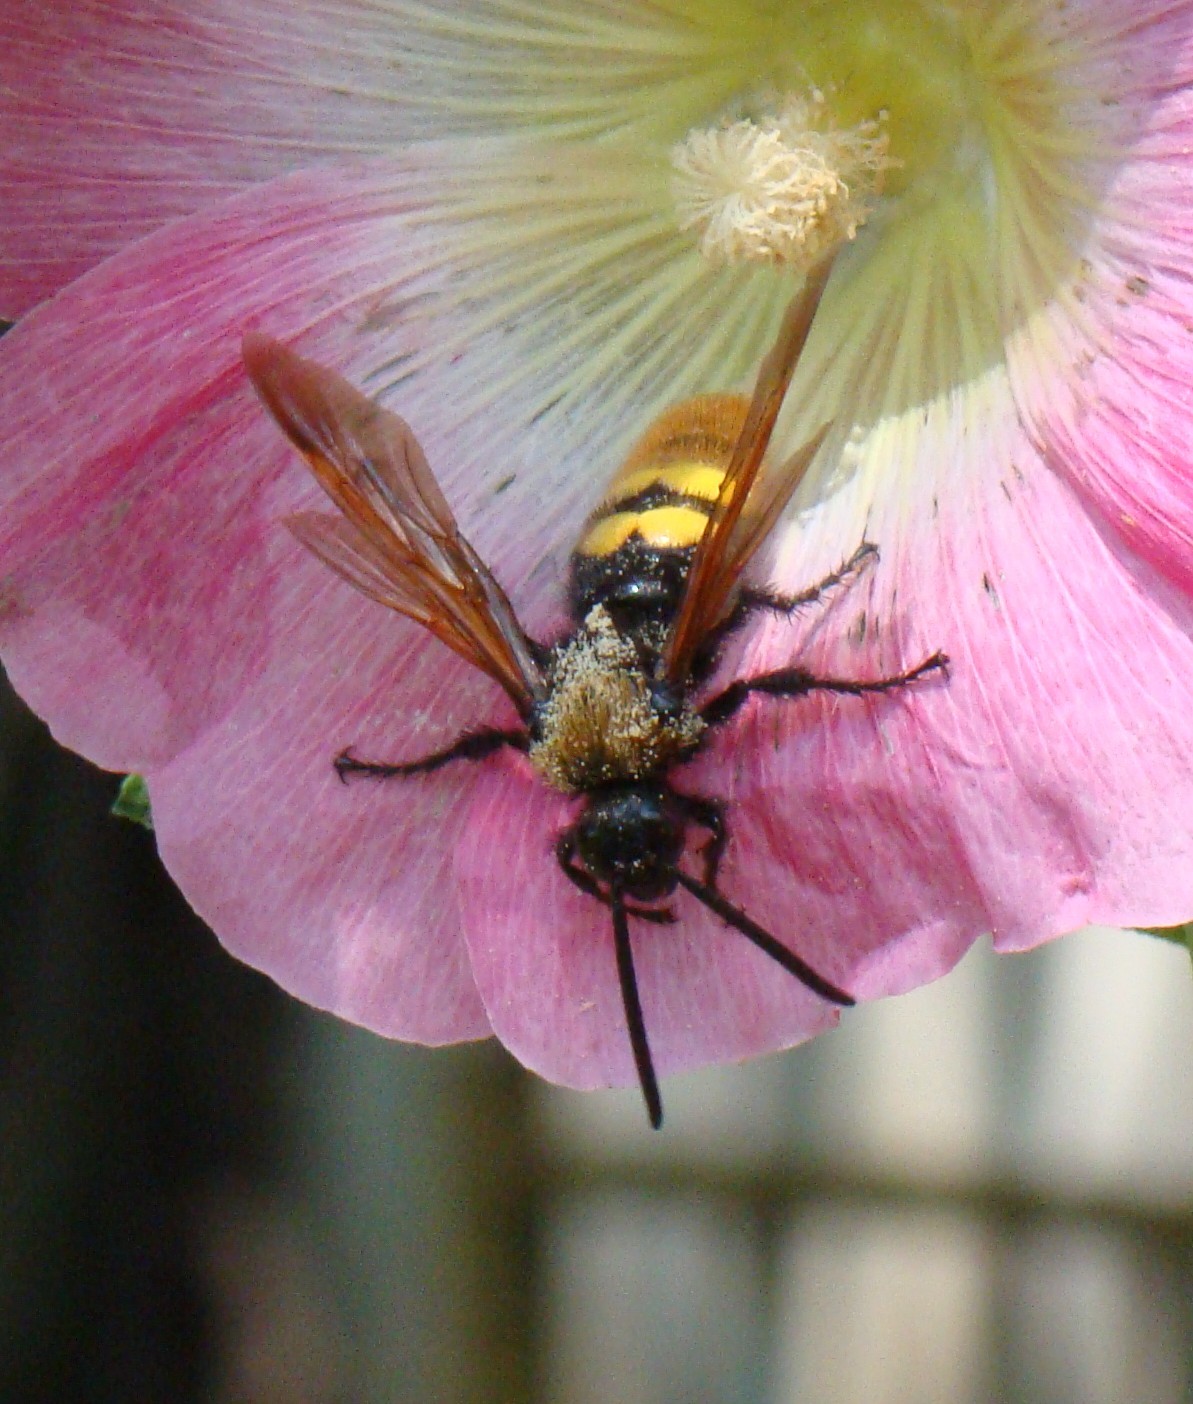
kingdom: Animalia
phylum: Arthropoda
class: Insecta
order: Hymenoptera
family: Scoliidae
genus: Megascolia
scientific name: Megascolia maculata
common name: Mammoth wasp
